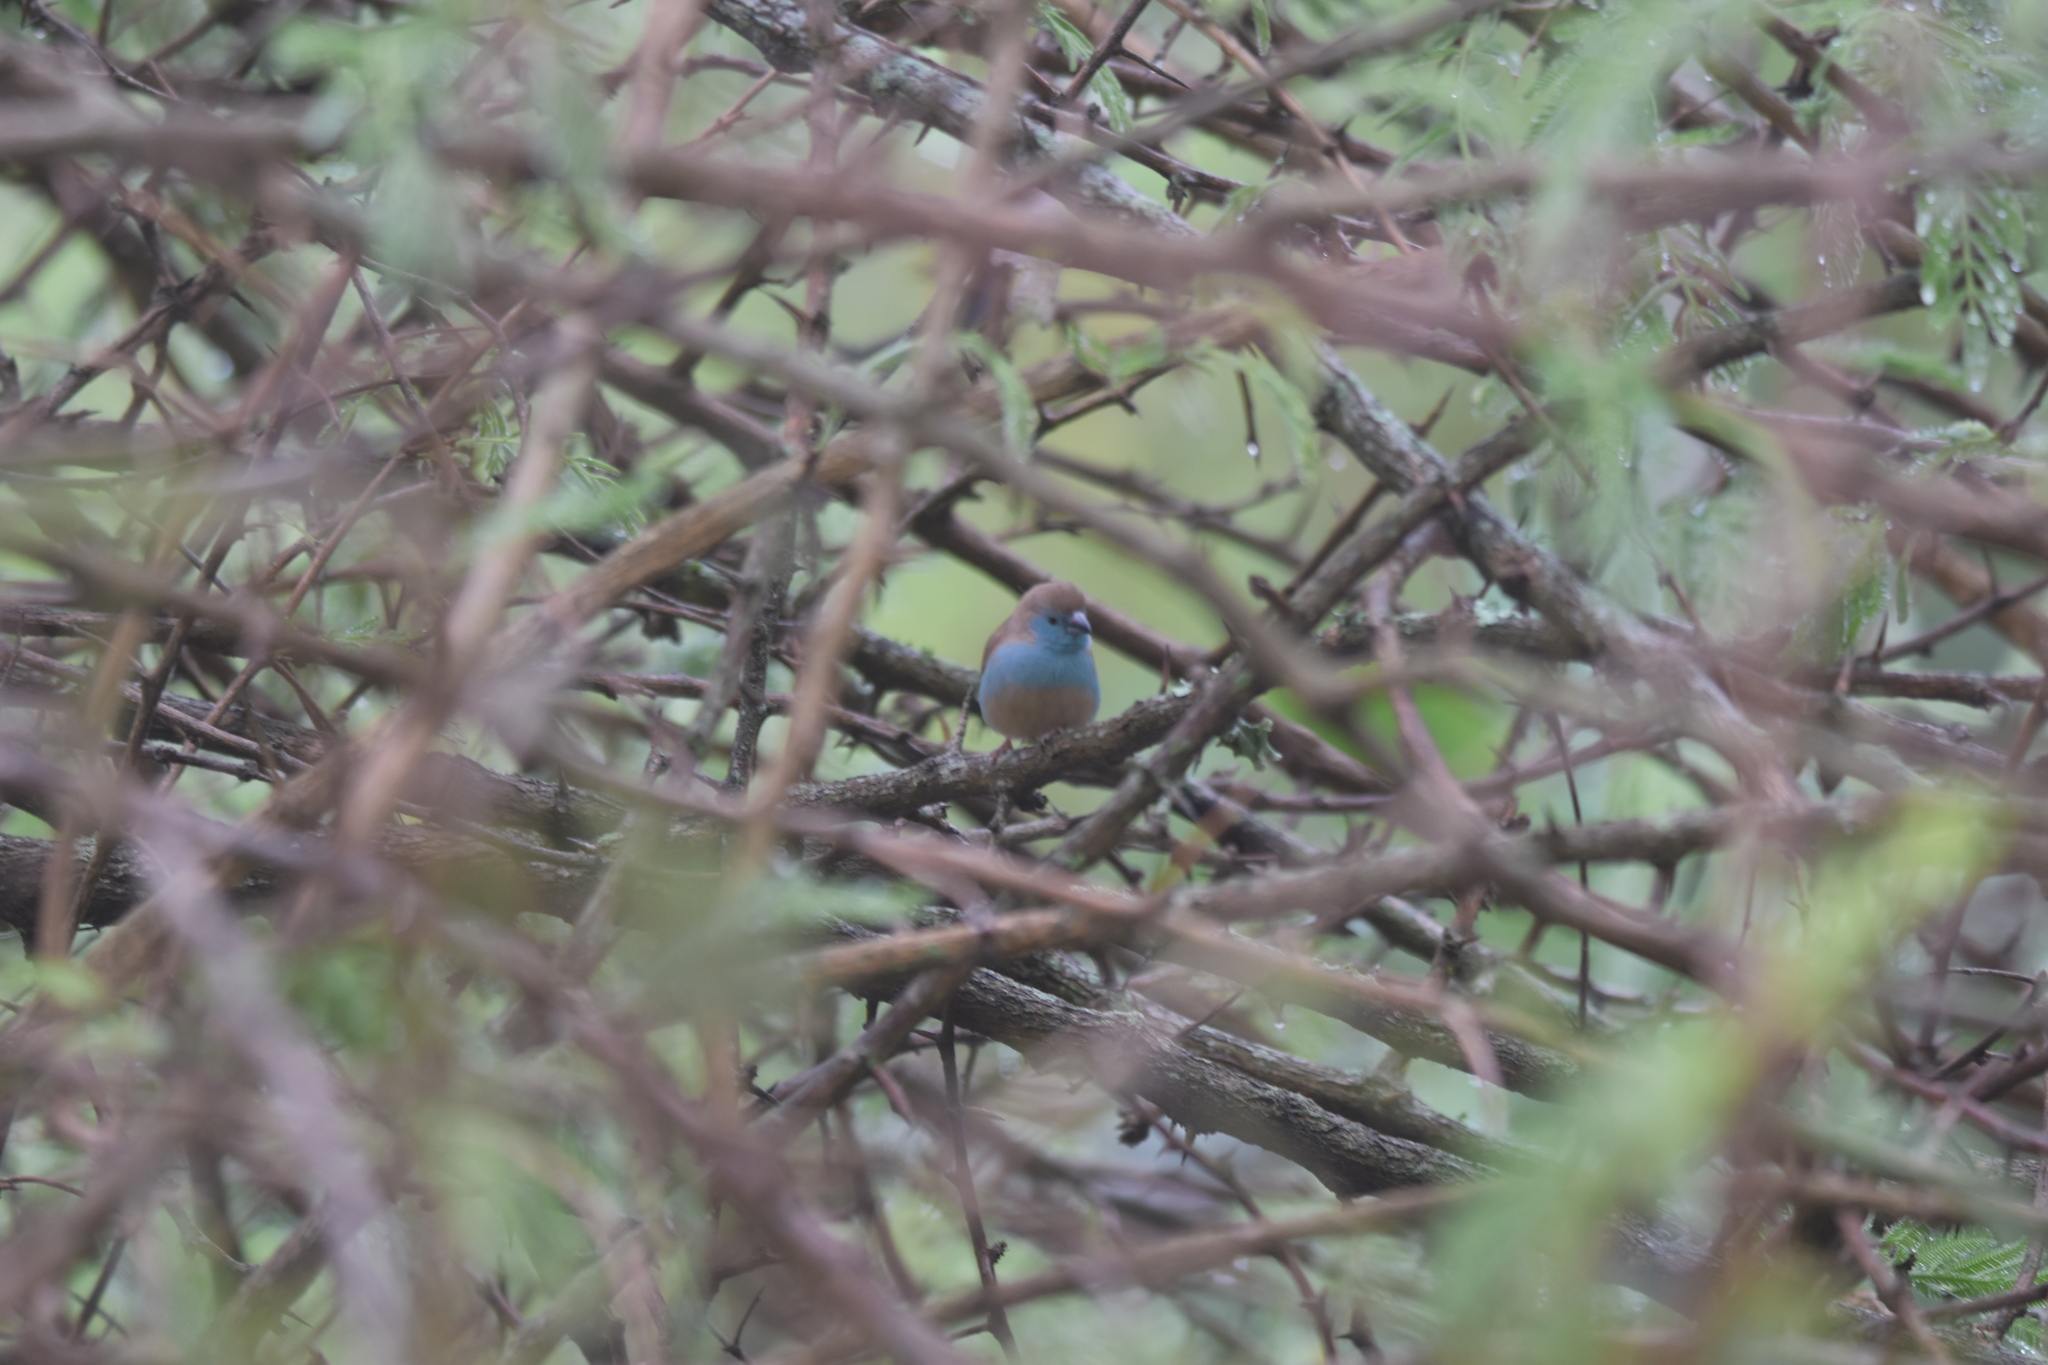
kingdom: Animalia
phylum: Chordata
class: Aves
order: Passeriformes
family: Estrildidae
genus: Uraeginthus
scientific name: Uraeginthus angolensis
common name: Blue waxbill
